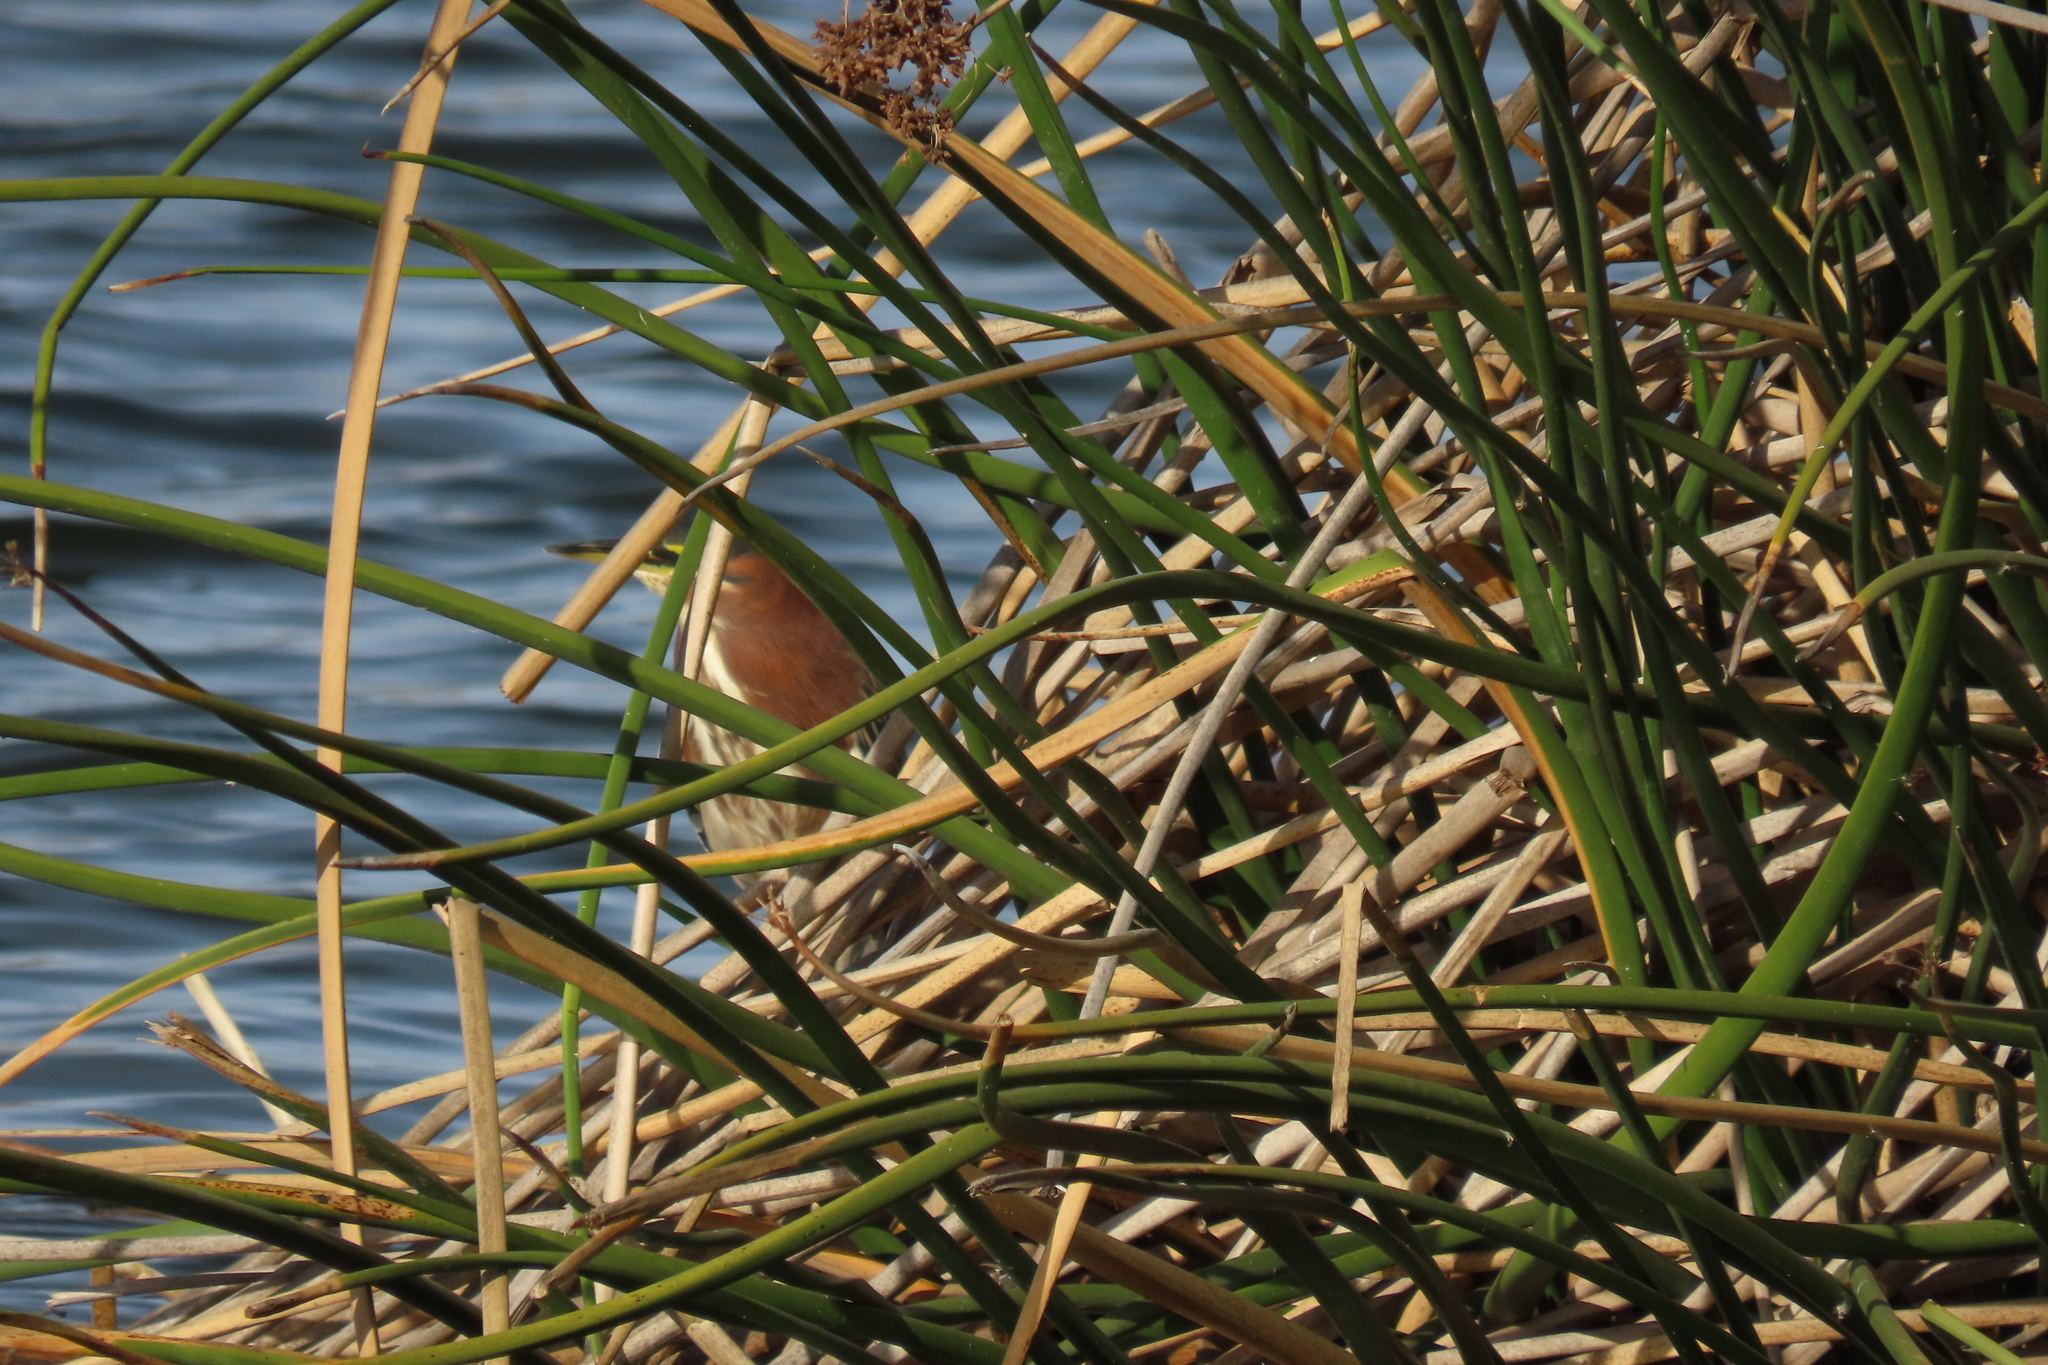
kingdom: Animalia
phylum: Chordata
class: Aves
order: Pelecaniformes
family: Ardeidae
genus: Butorides
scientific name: Butorides virescens
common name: Green heron
